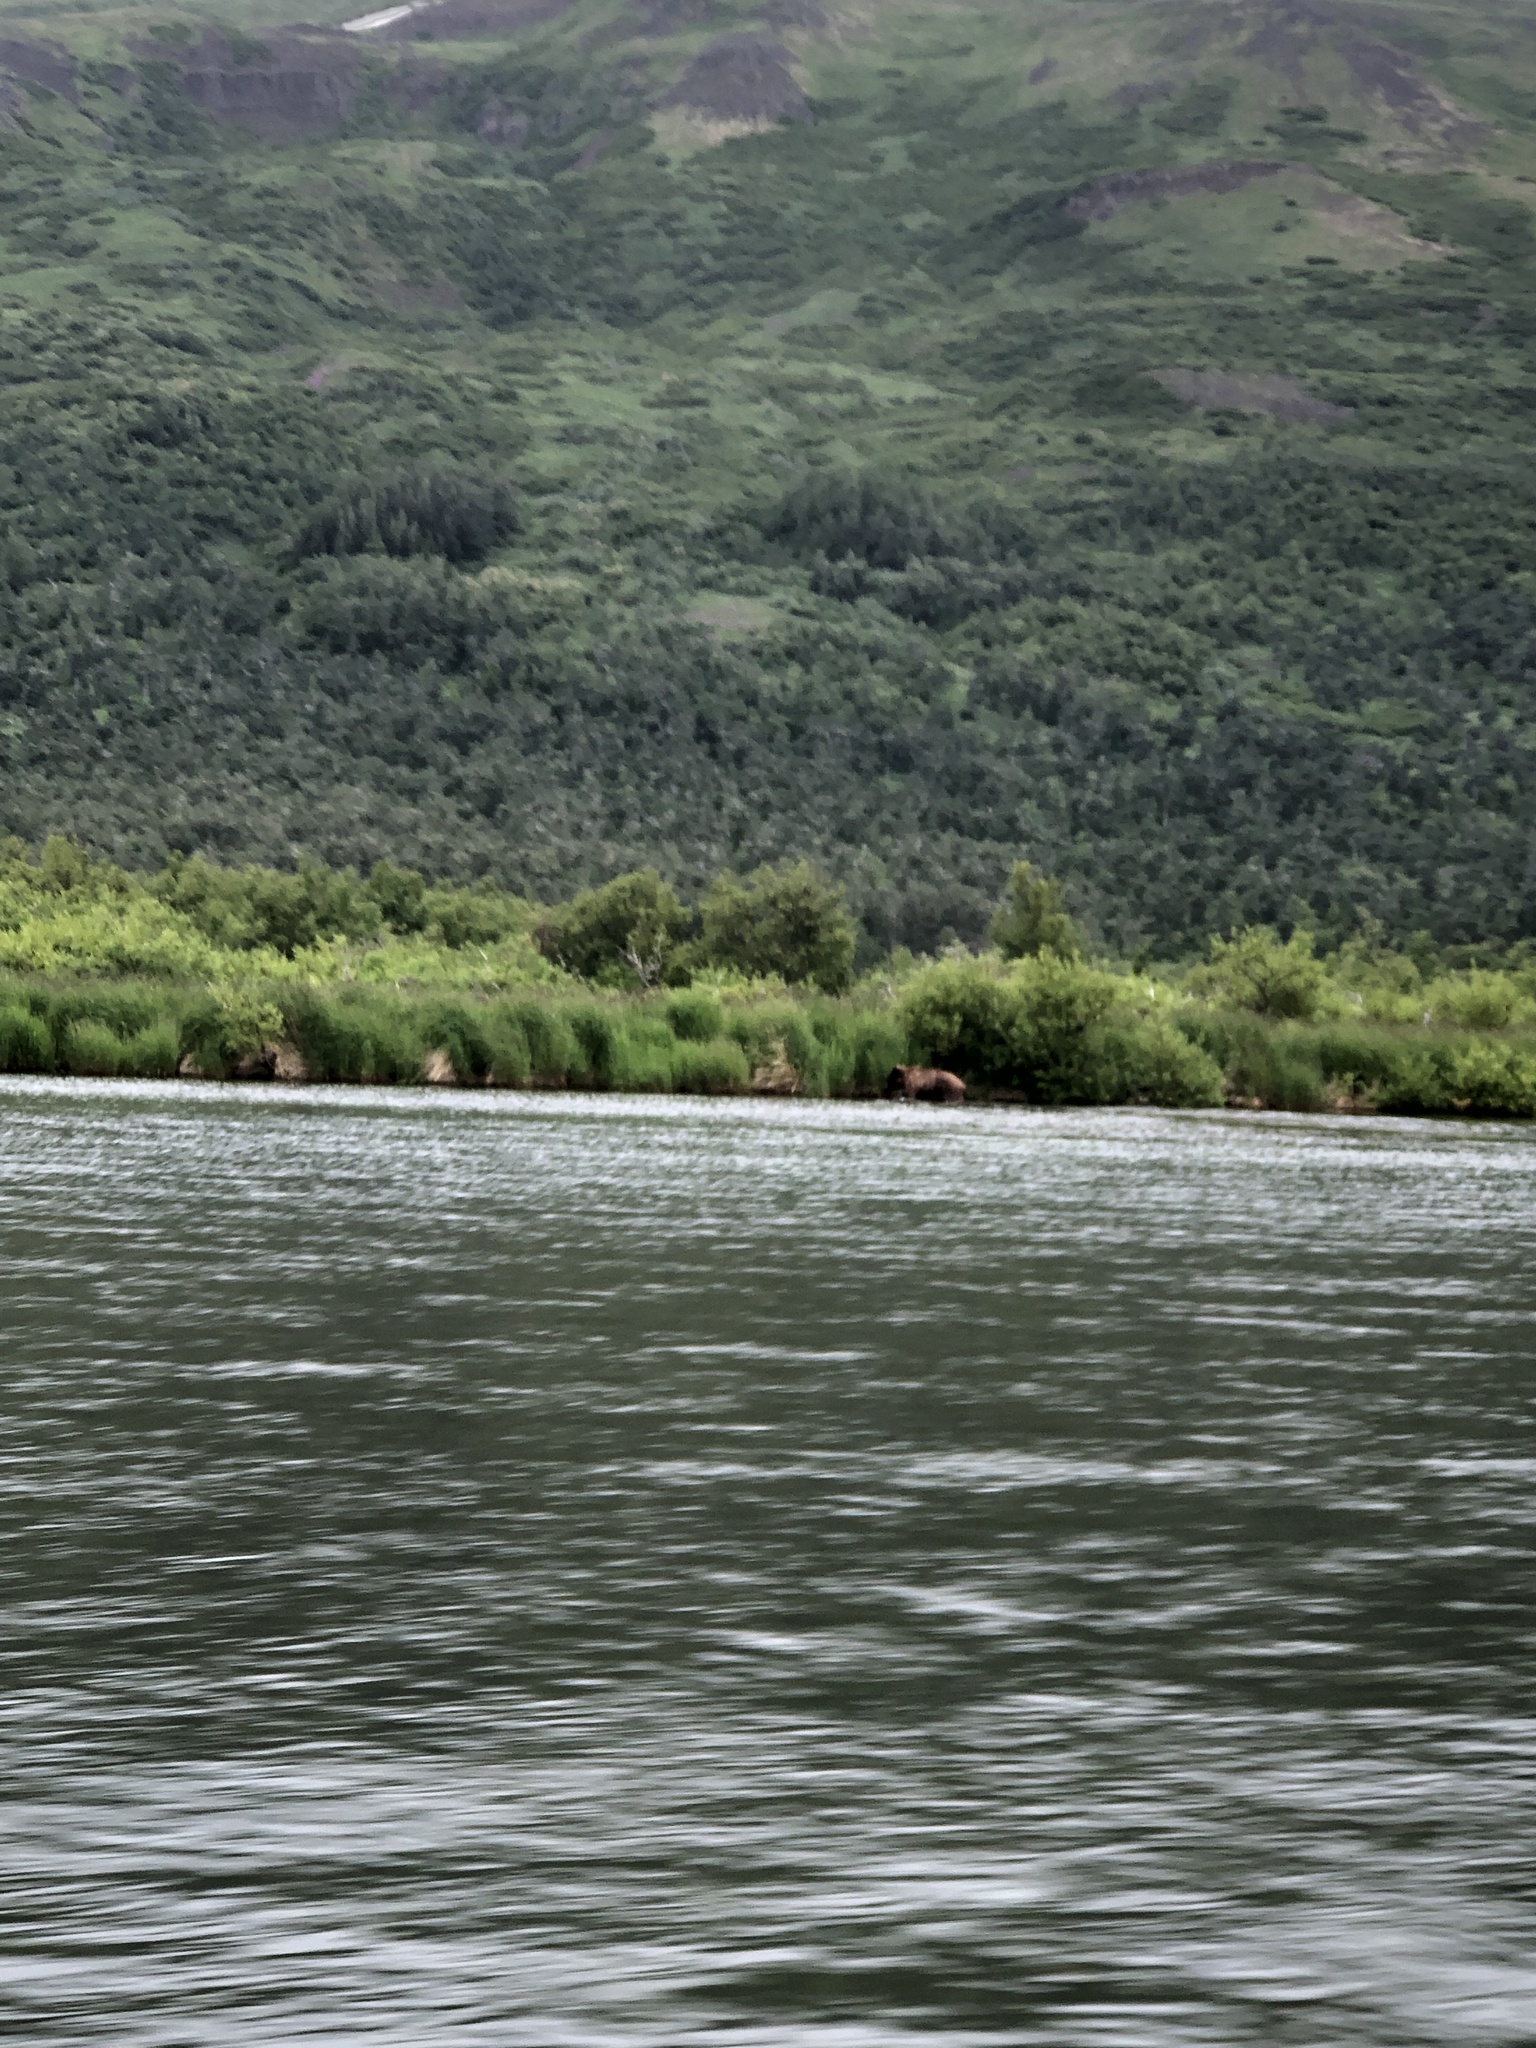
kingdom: Animalia
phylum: Chordata
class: Mammalia
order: Carnivora
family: Ursidae
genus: Ursus
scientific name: Ursus arctos
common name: Brown bear
